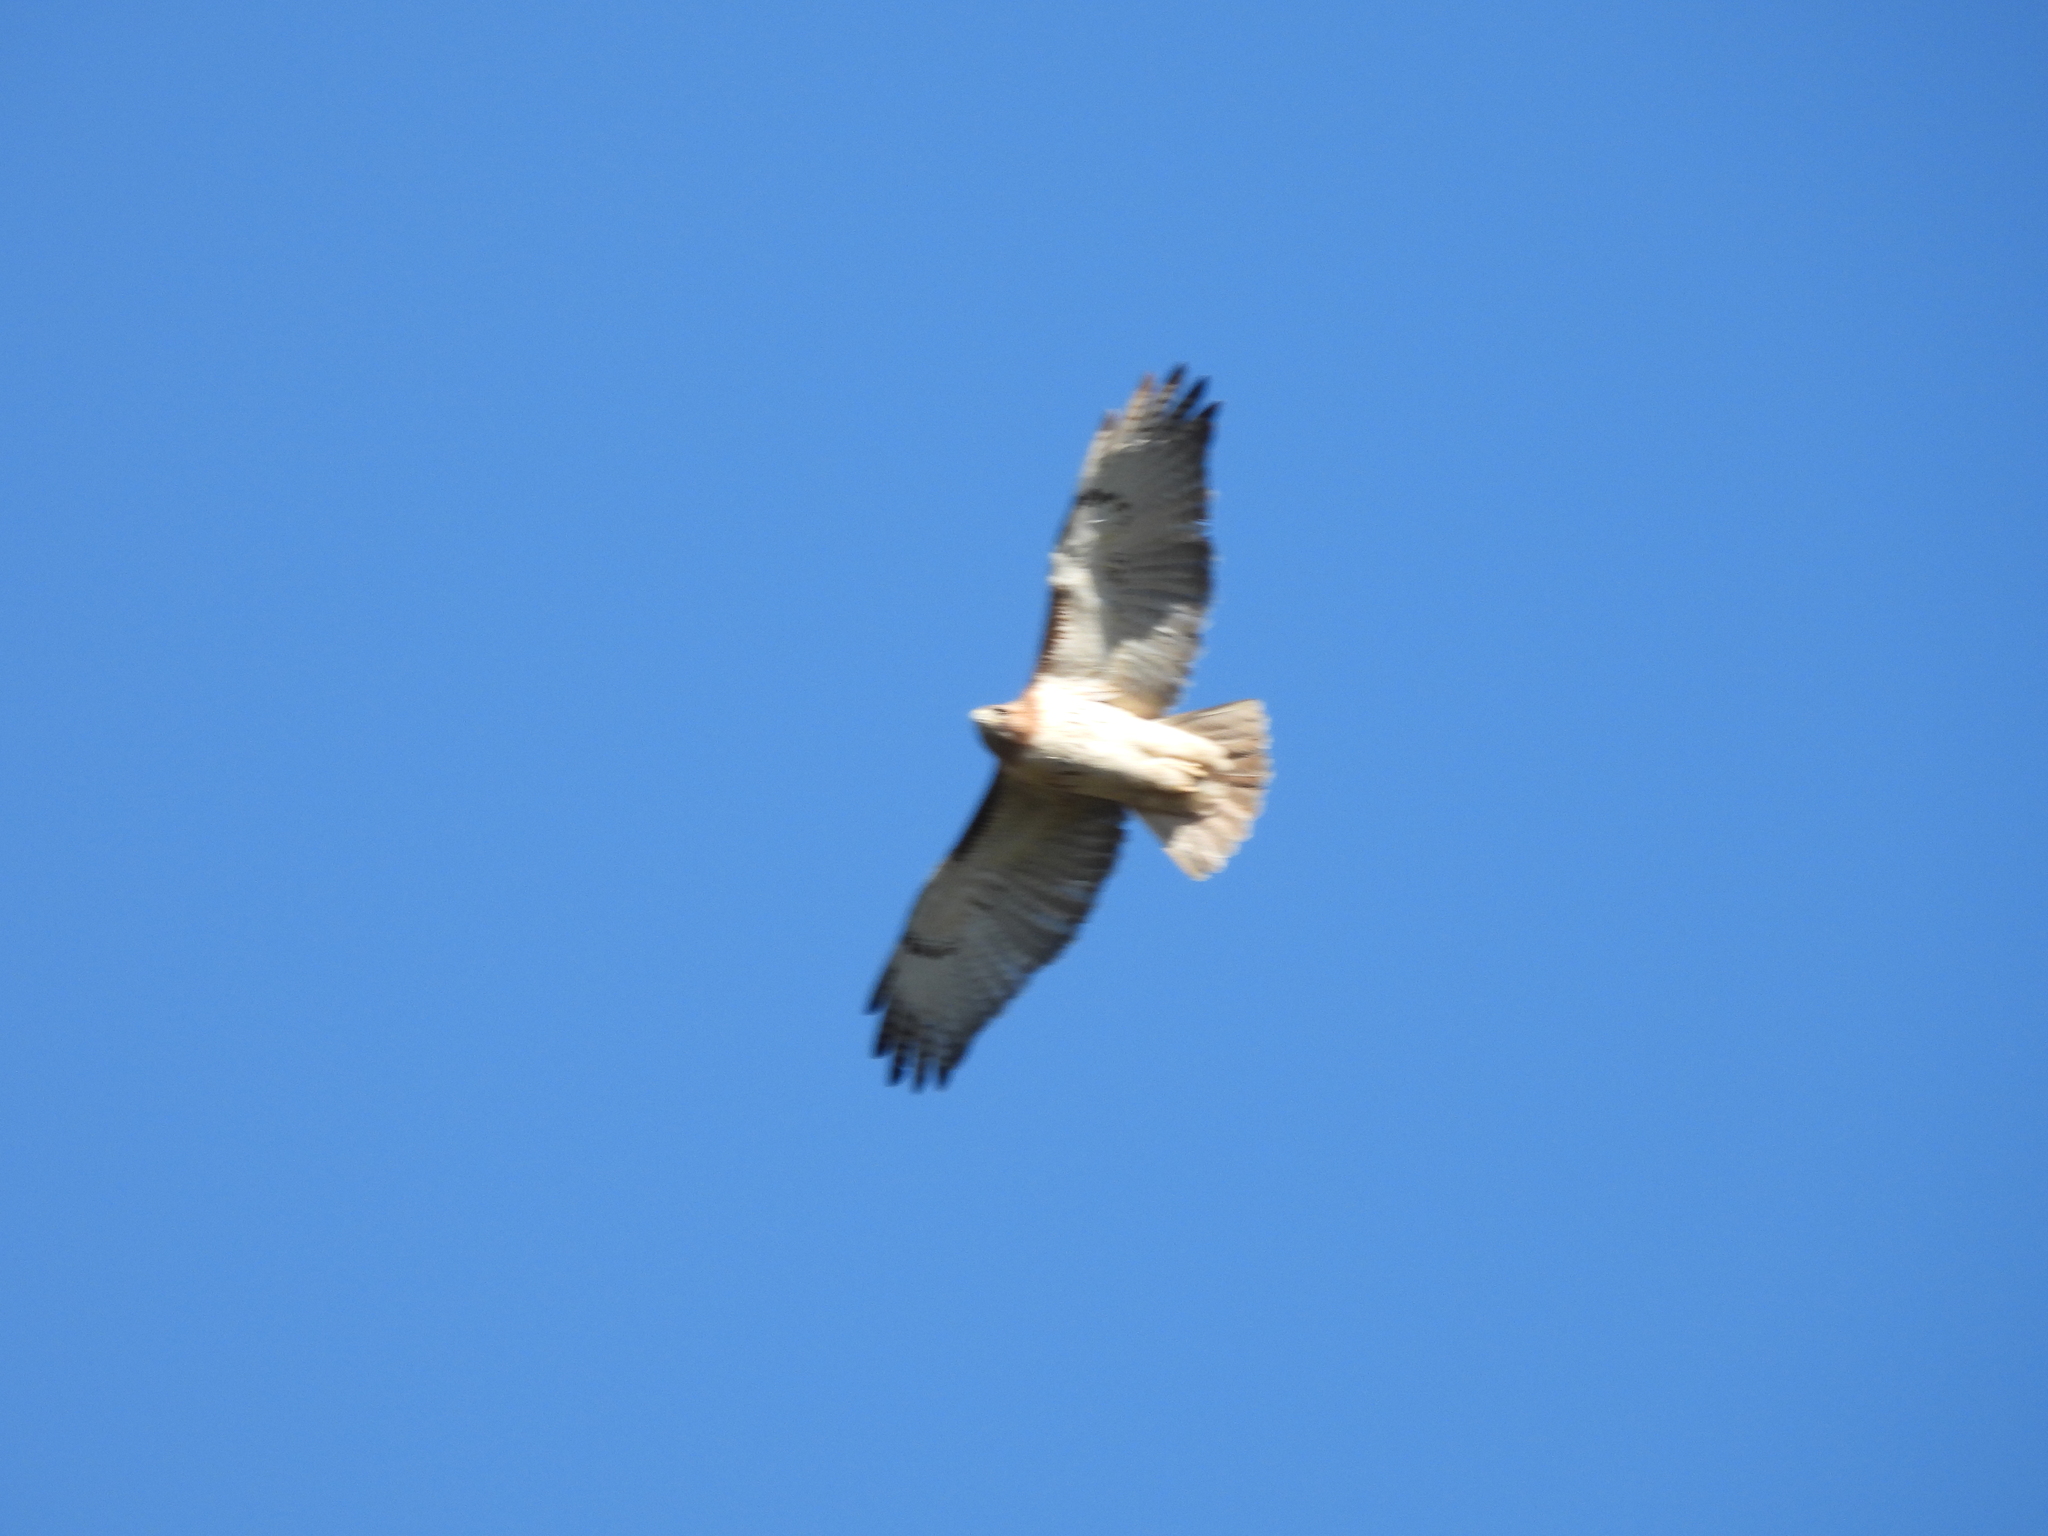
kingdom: Animalia
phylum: Chordata
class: Aves
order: Accipitriformes
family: Accipitridae
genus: Buteo
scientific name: Buteo jamaicensis
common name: Red-tailed hawk
